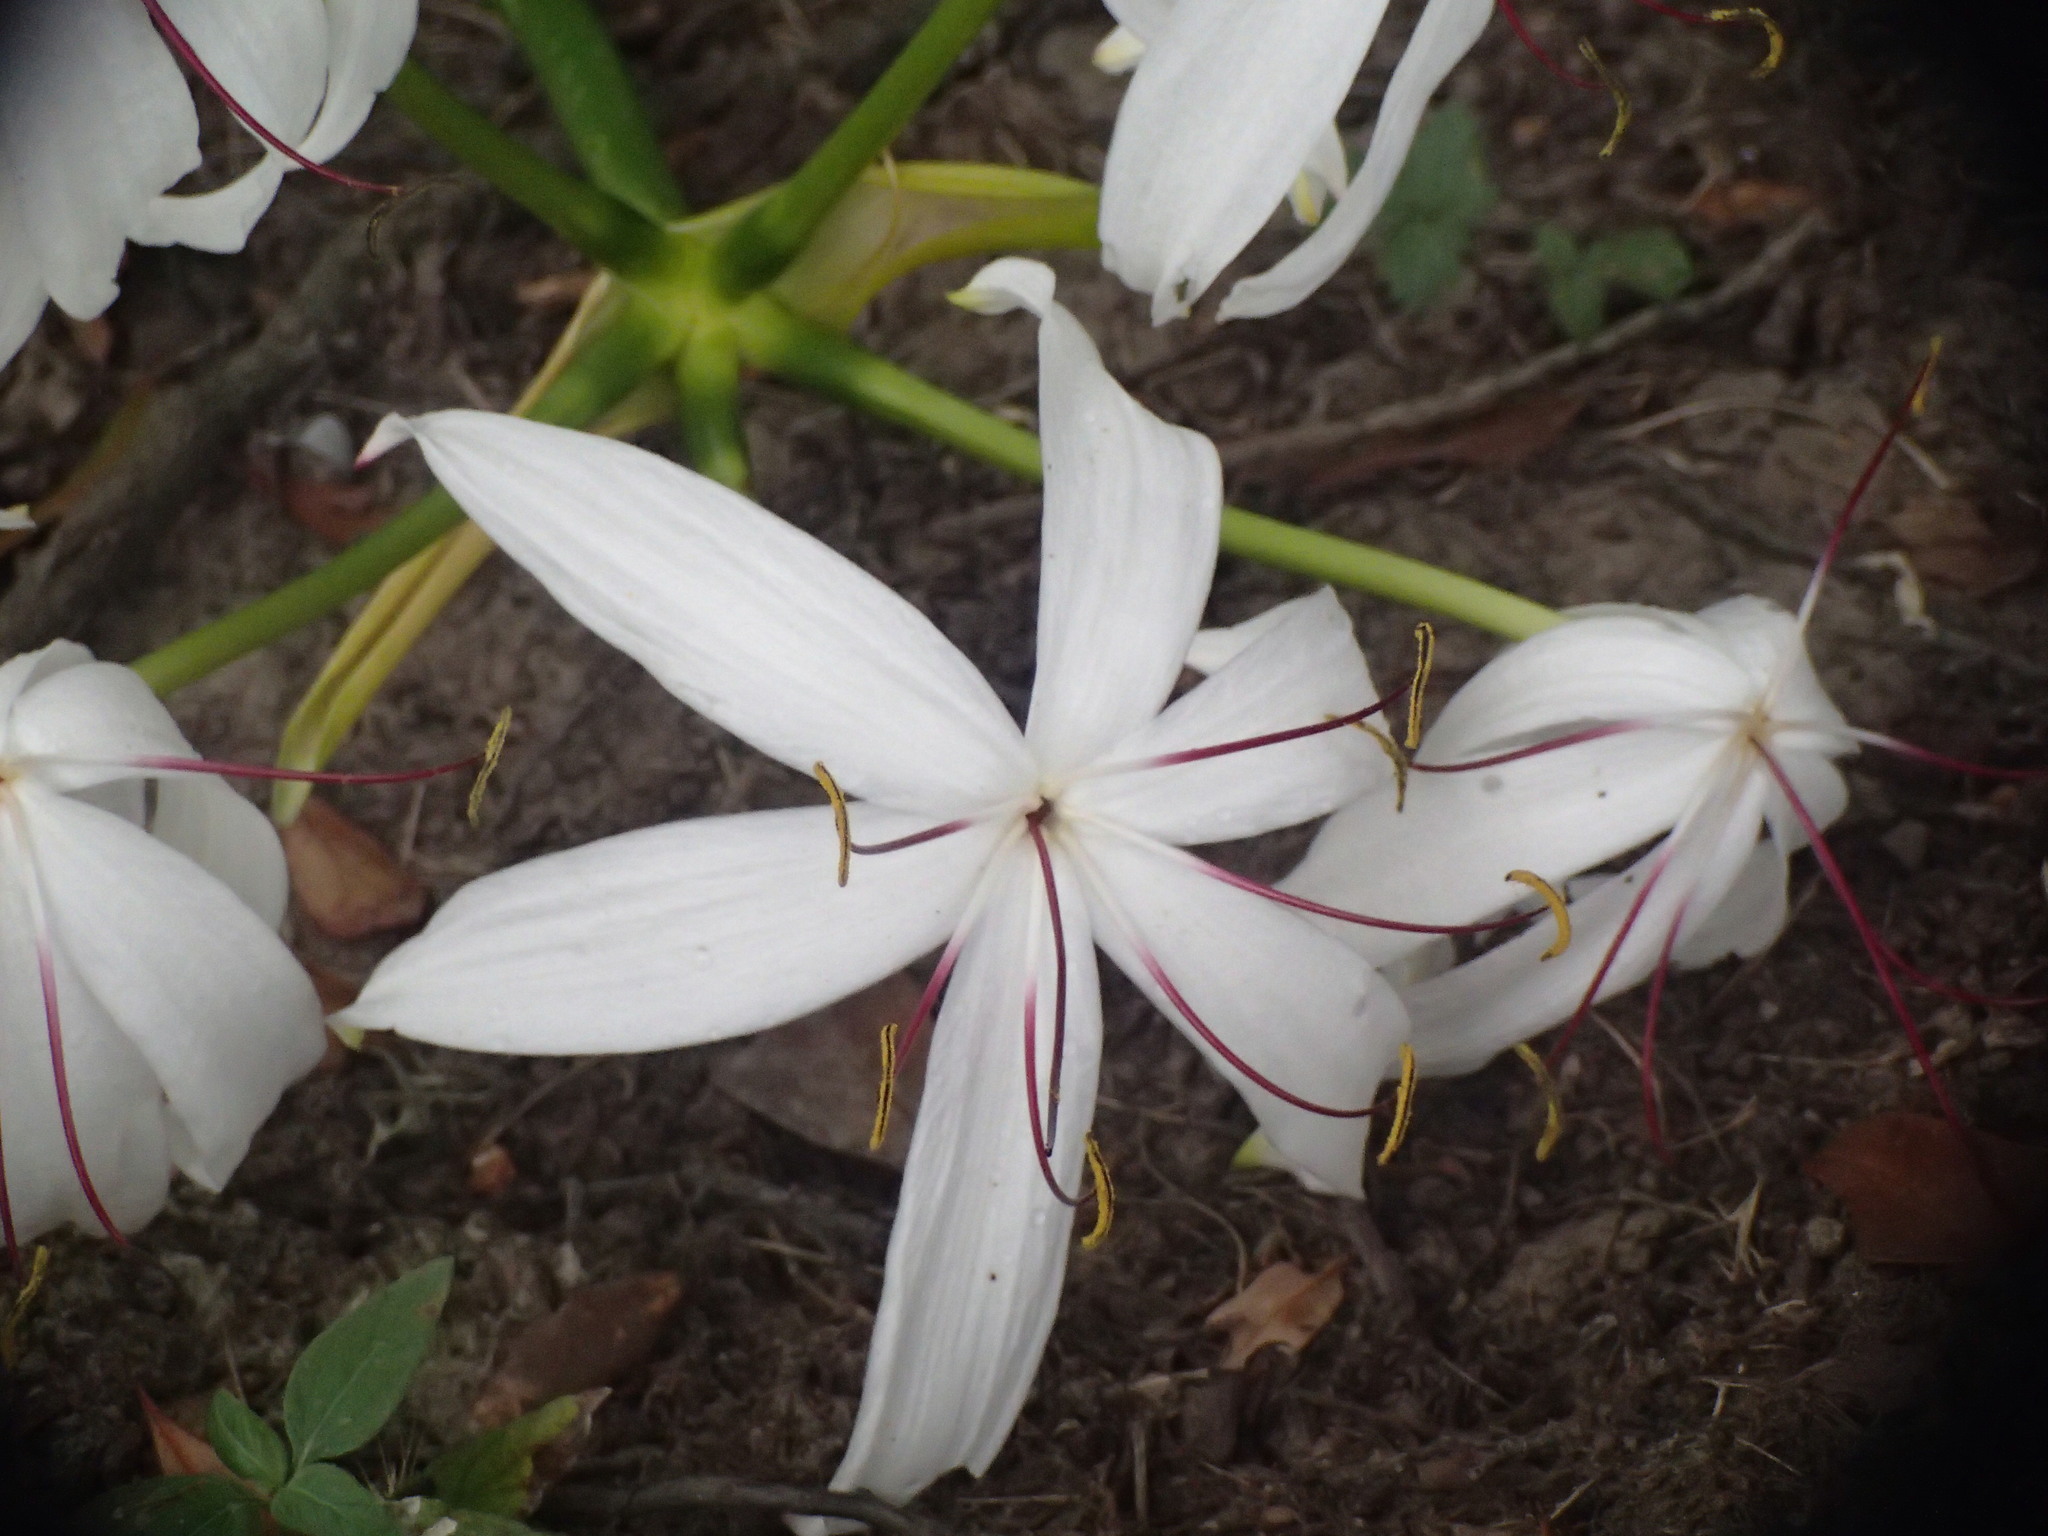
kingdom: Plantae
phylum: Tracheophyta
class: Liliopsida
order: Asparagales
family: Amaryllidaceae
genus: Crinum
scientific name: Crinum americanum
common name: Florida swamp-lily
